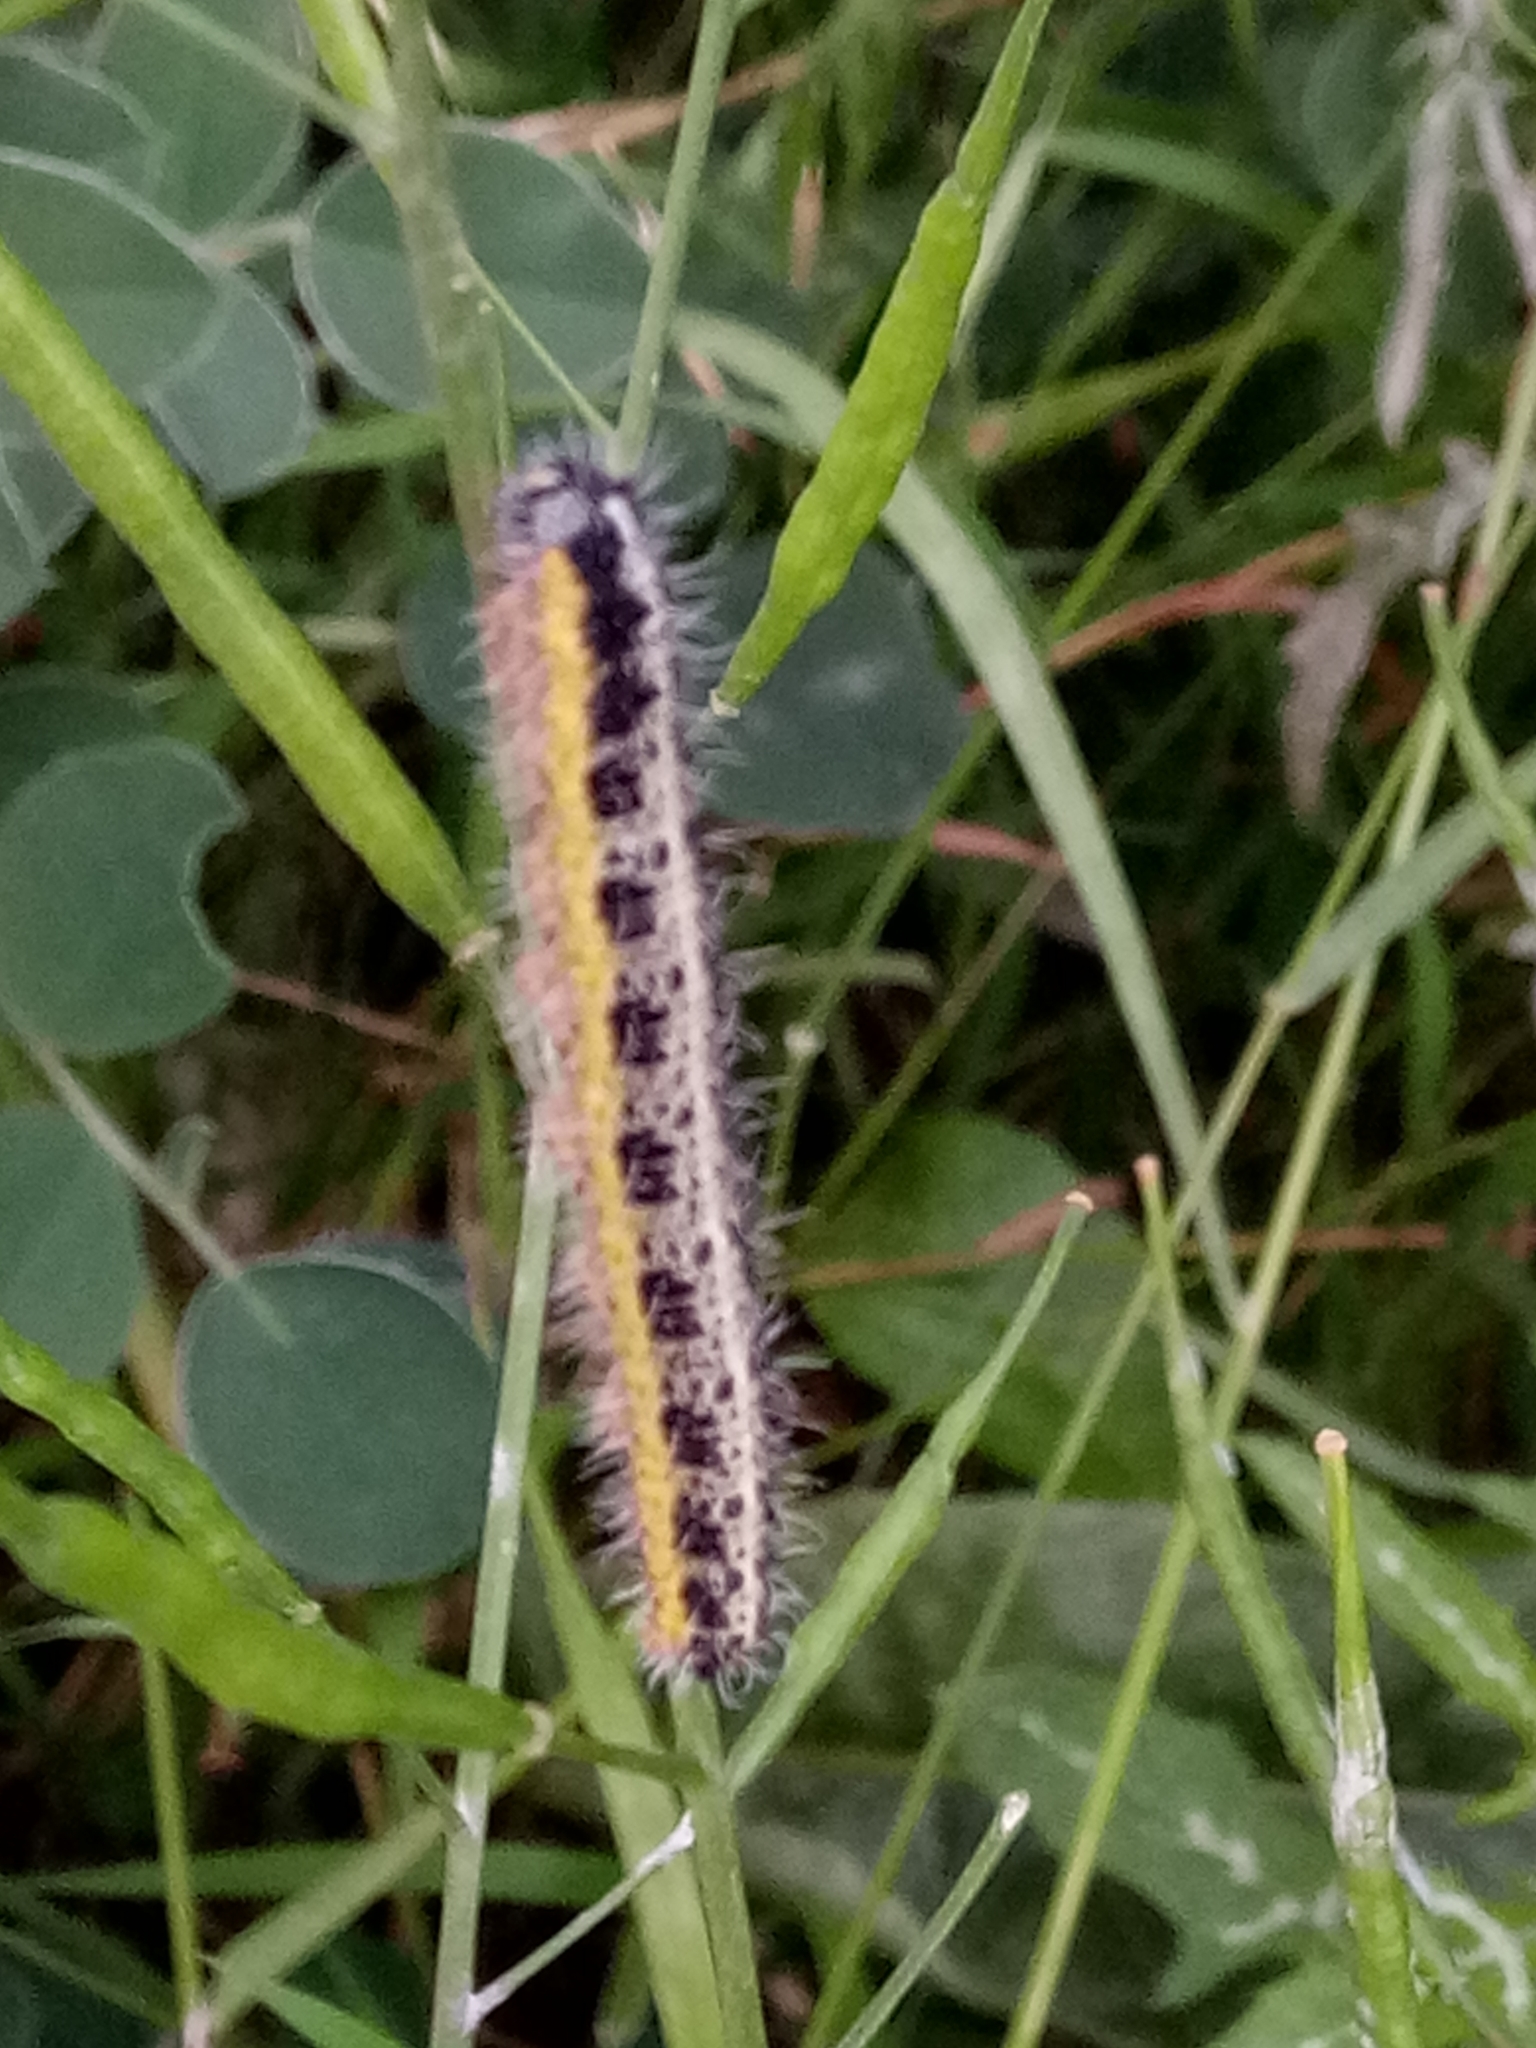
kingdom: Animalia
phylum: Arthropoda
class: Insecta
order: Lepidoptera
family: Pieridae
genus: Pieris
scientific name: Pieris brassicae
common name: Large white
